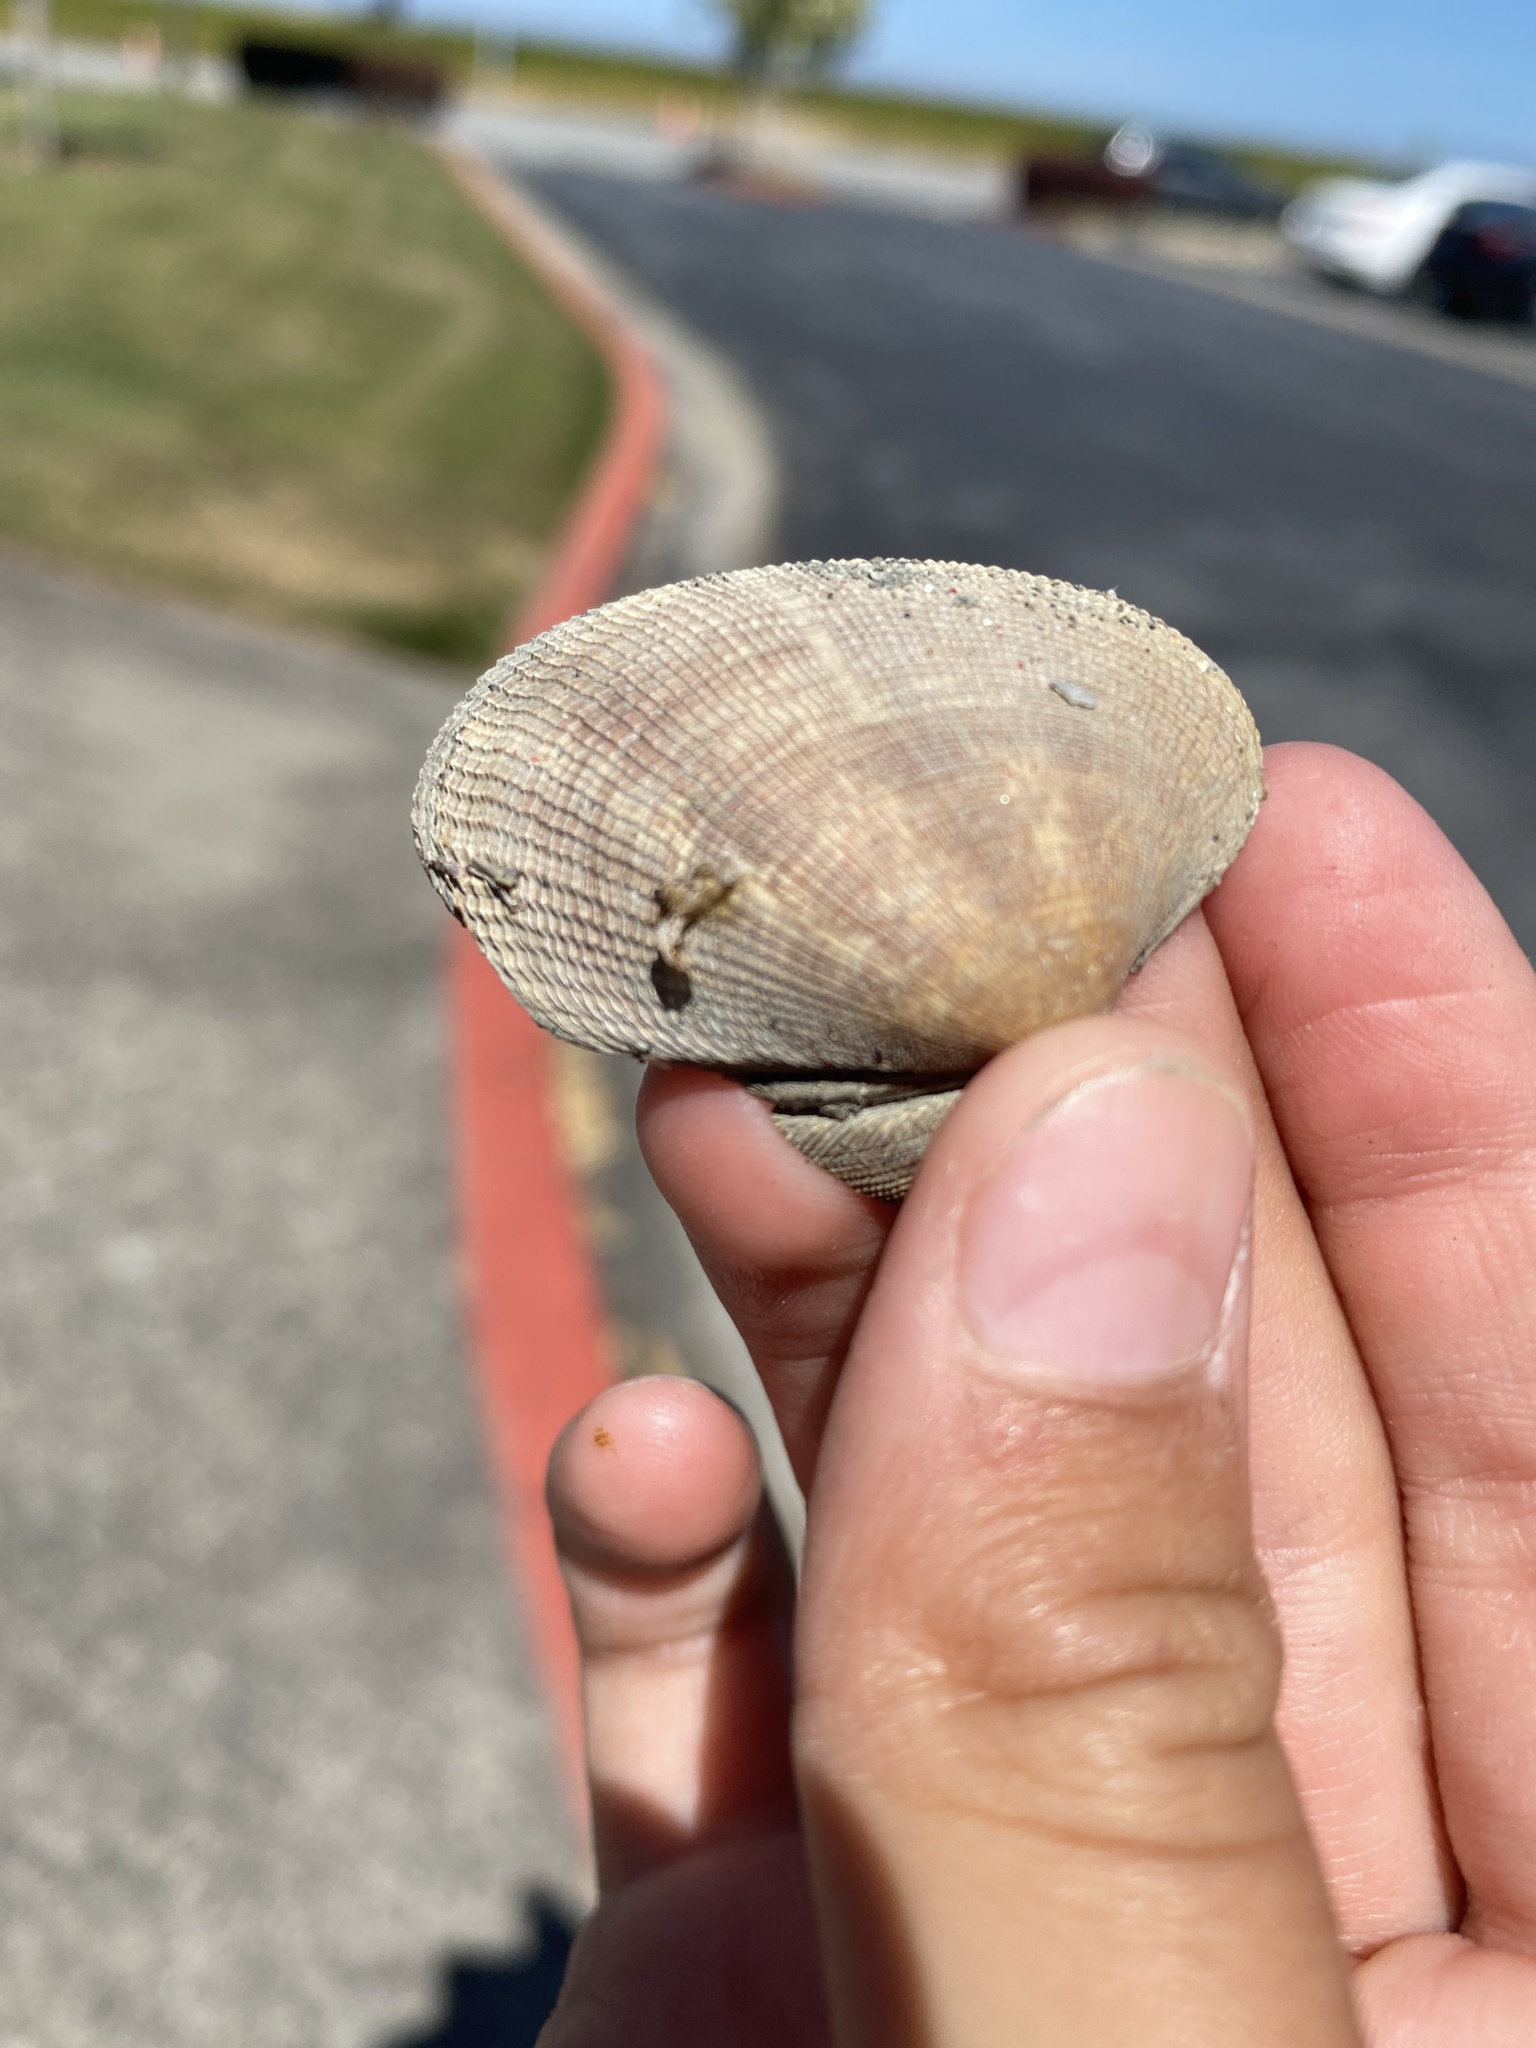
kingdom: Animalia
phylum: Mollusca
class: Bivalvia
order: Venerida
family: Veneridae
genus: Ruditapes
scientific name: Ruditapes philippinarum
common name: Manila clam
